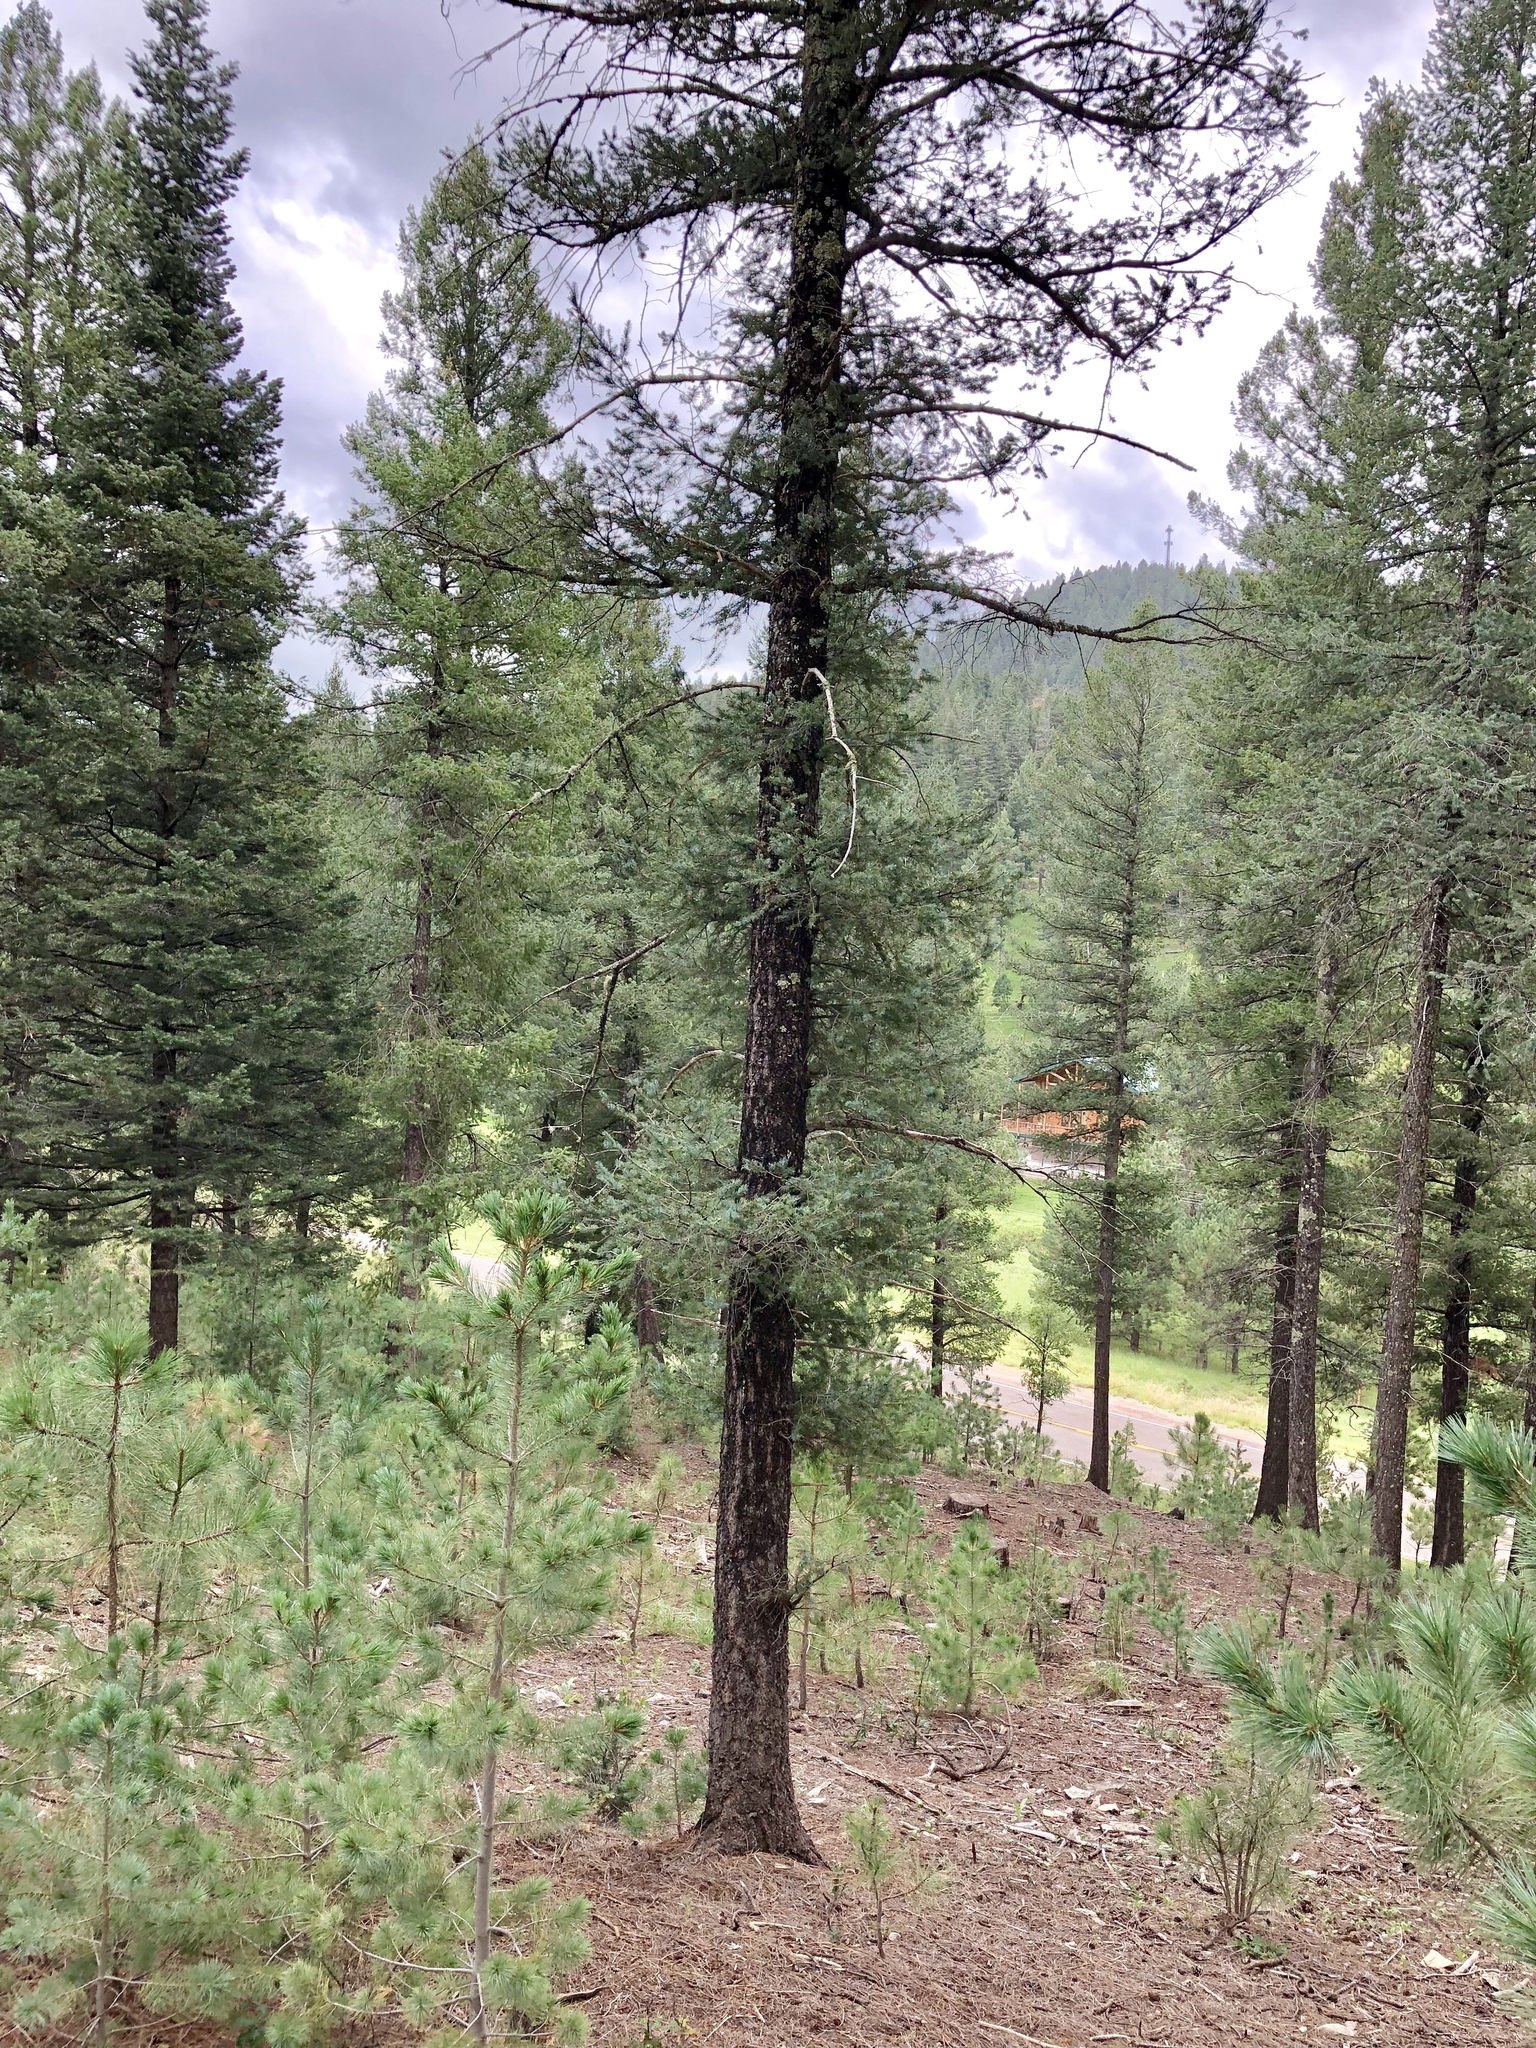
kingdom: Plantae
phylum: Tracheophyta
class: Pinopsida
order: Pinales
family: Pinaceae
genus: Pseudotsuga
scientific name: Pseudotsuga menziesii
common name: Douglas fir
